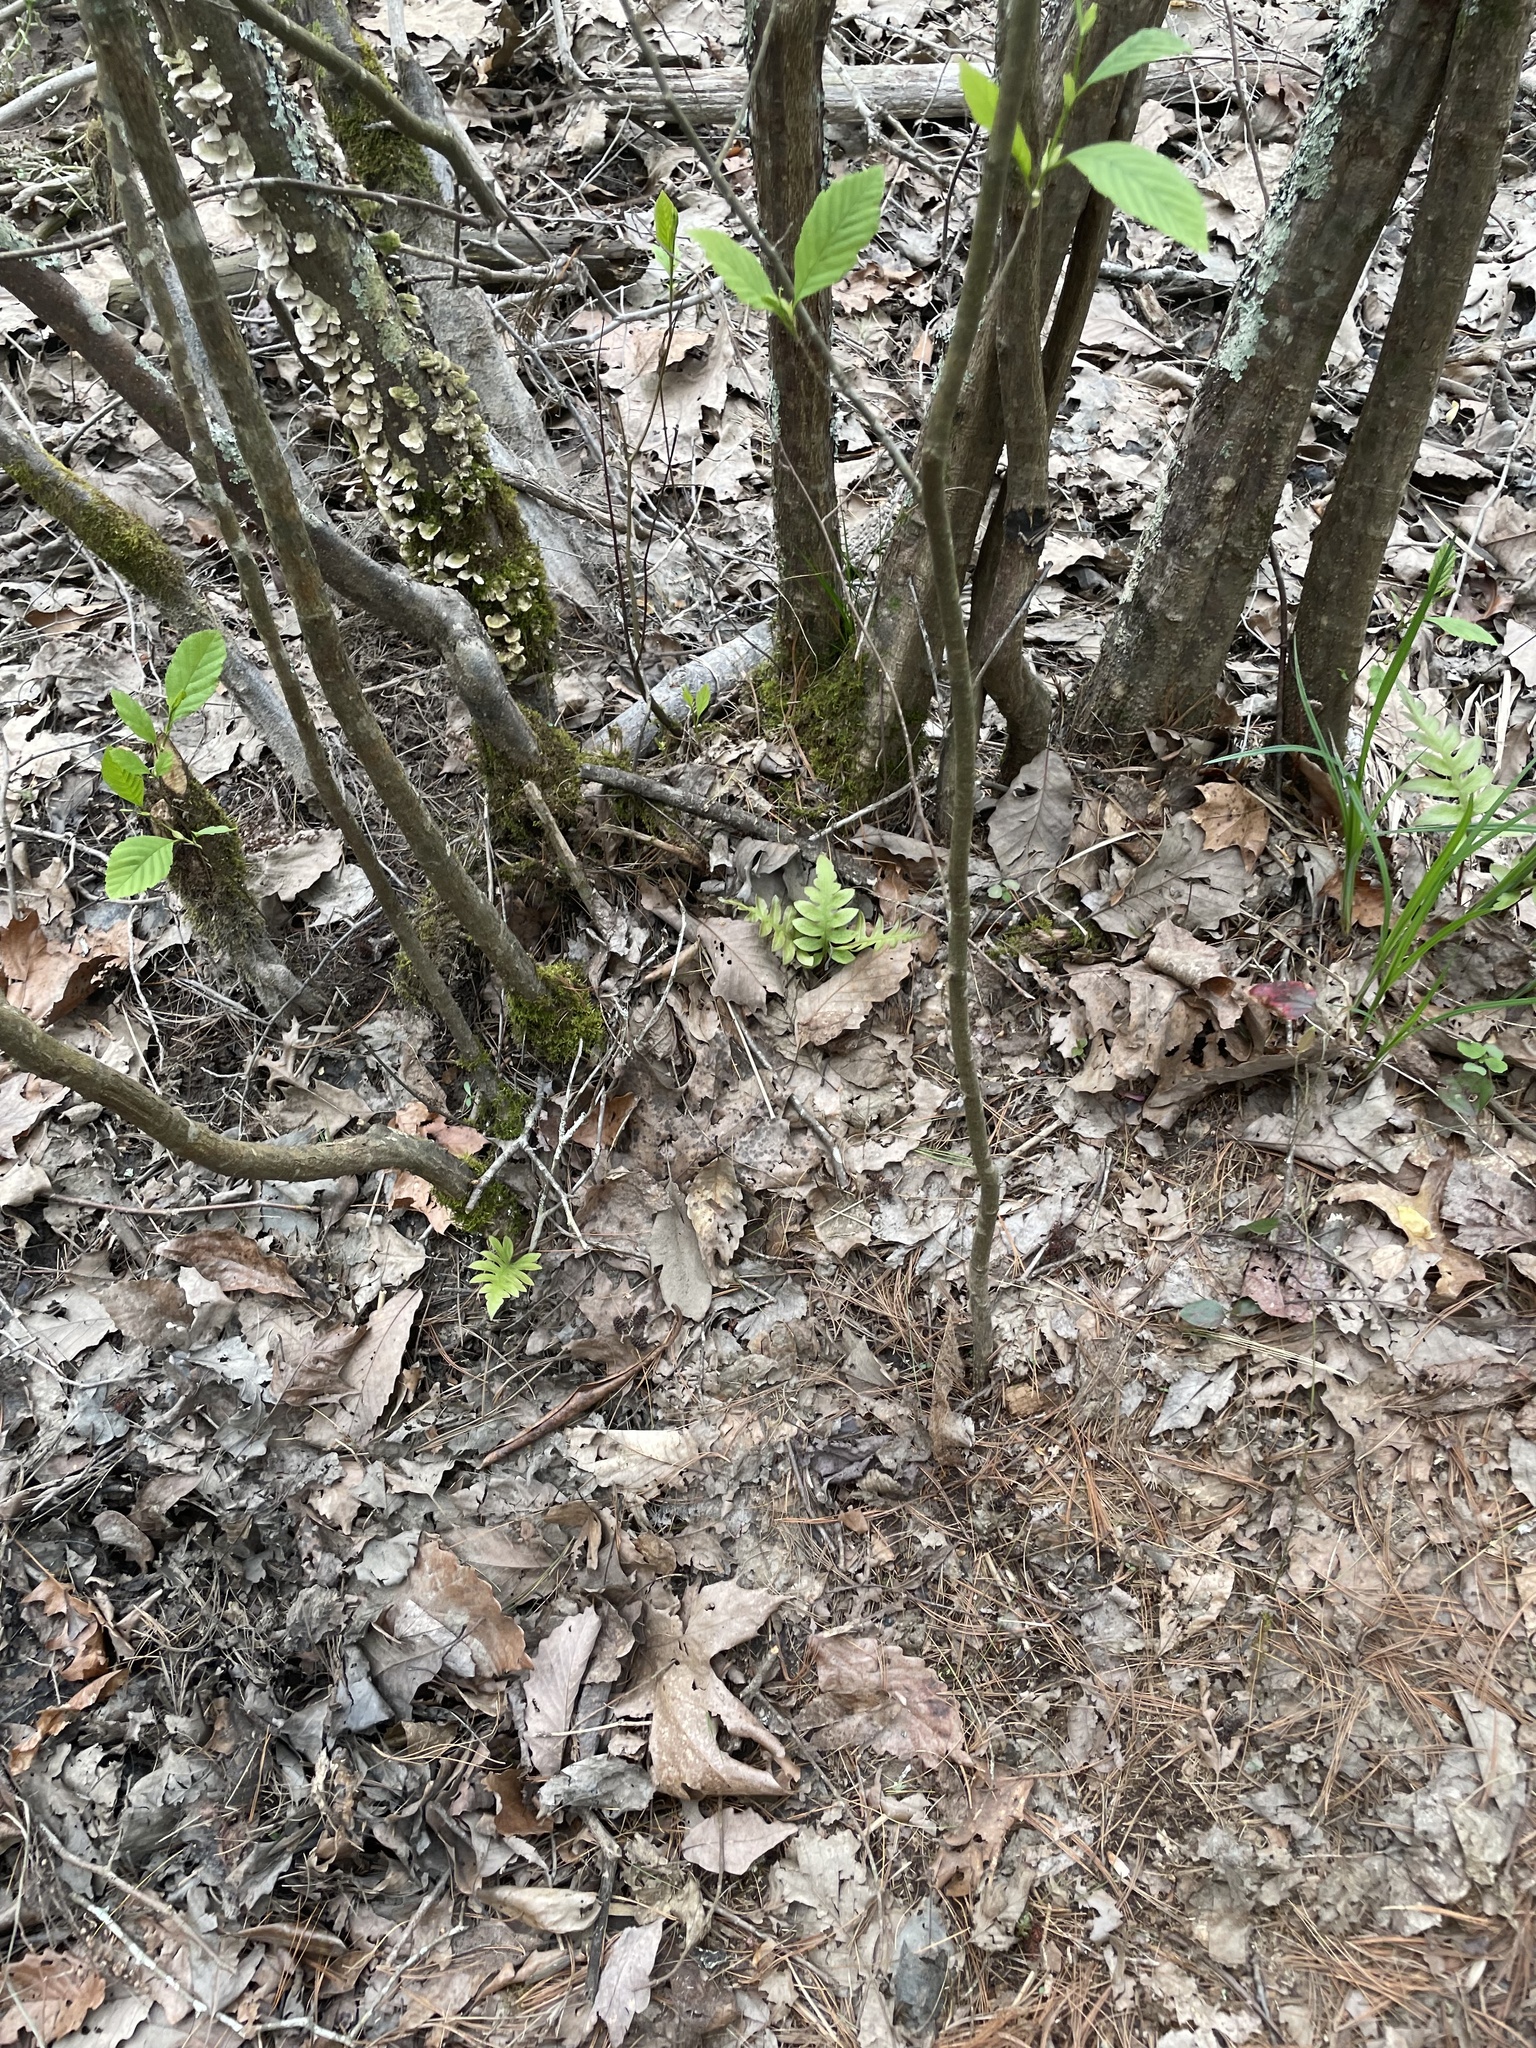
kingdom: Plantae
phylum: Tracheophyta
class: Polypodiopsida
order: Polypodiales
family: Blechnaceae
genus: Lorinseria
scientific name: Lorinseria areolata
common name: Dwarf chain fern
